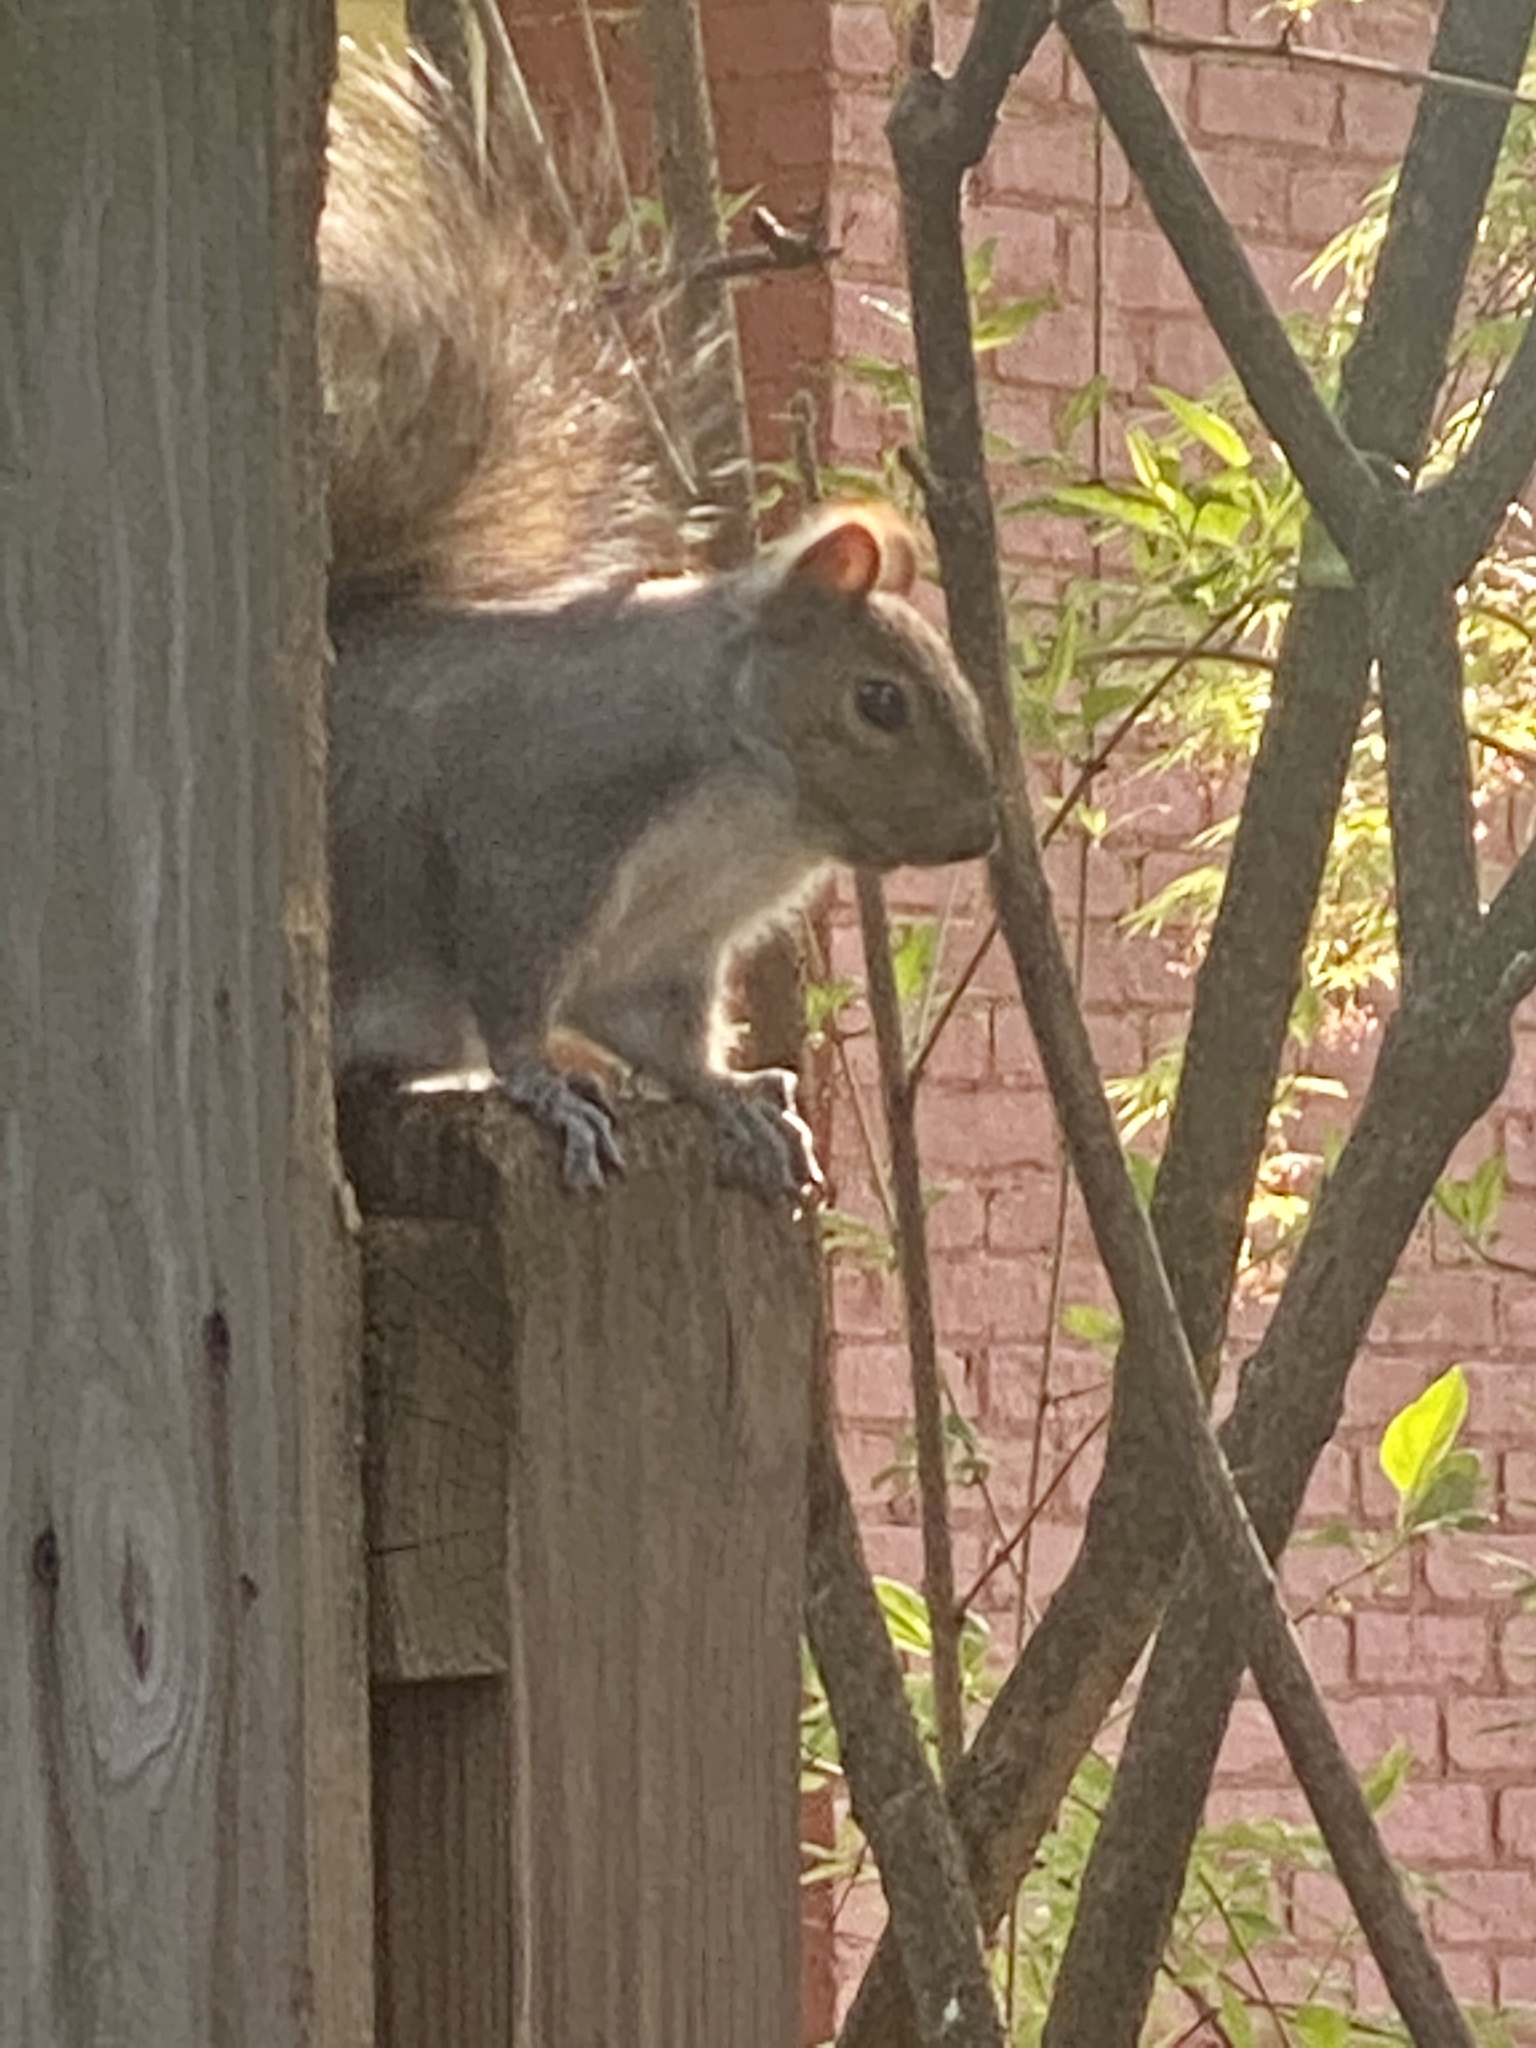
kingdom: Animalia
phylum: Chordata
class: Mammalia
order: Rodentia
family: Sciuridae
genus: Sciurus
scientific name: Sciurus carolinensis
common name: Eastern gray squirrel
